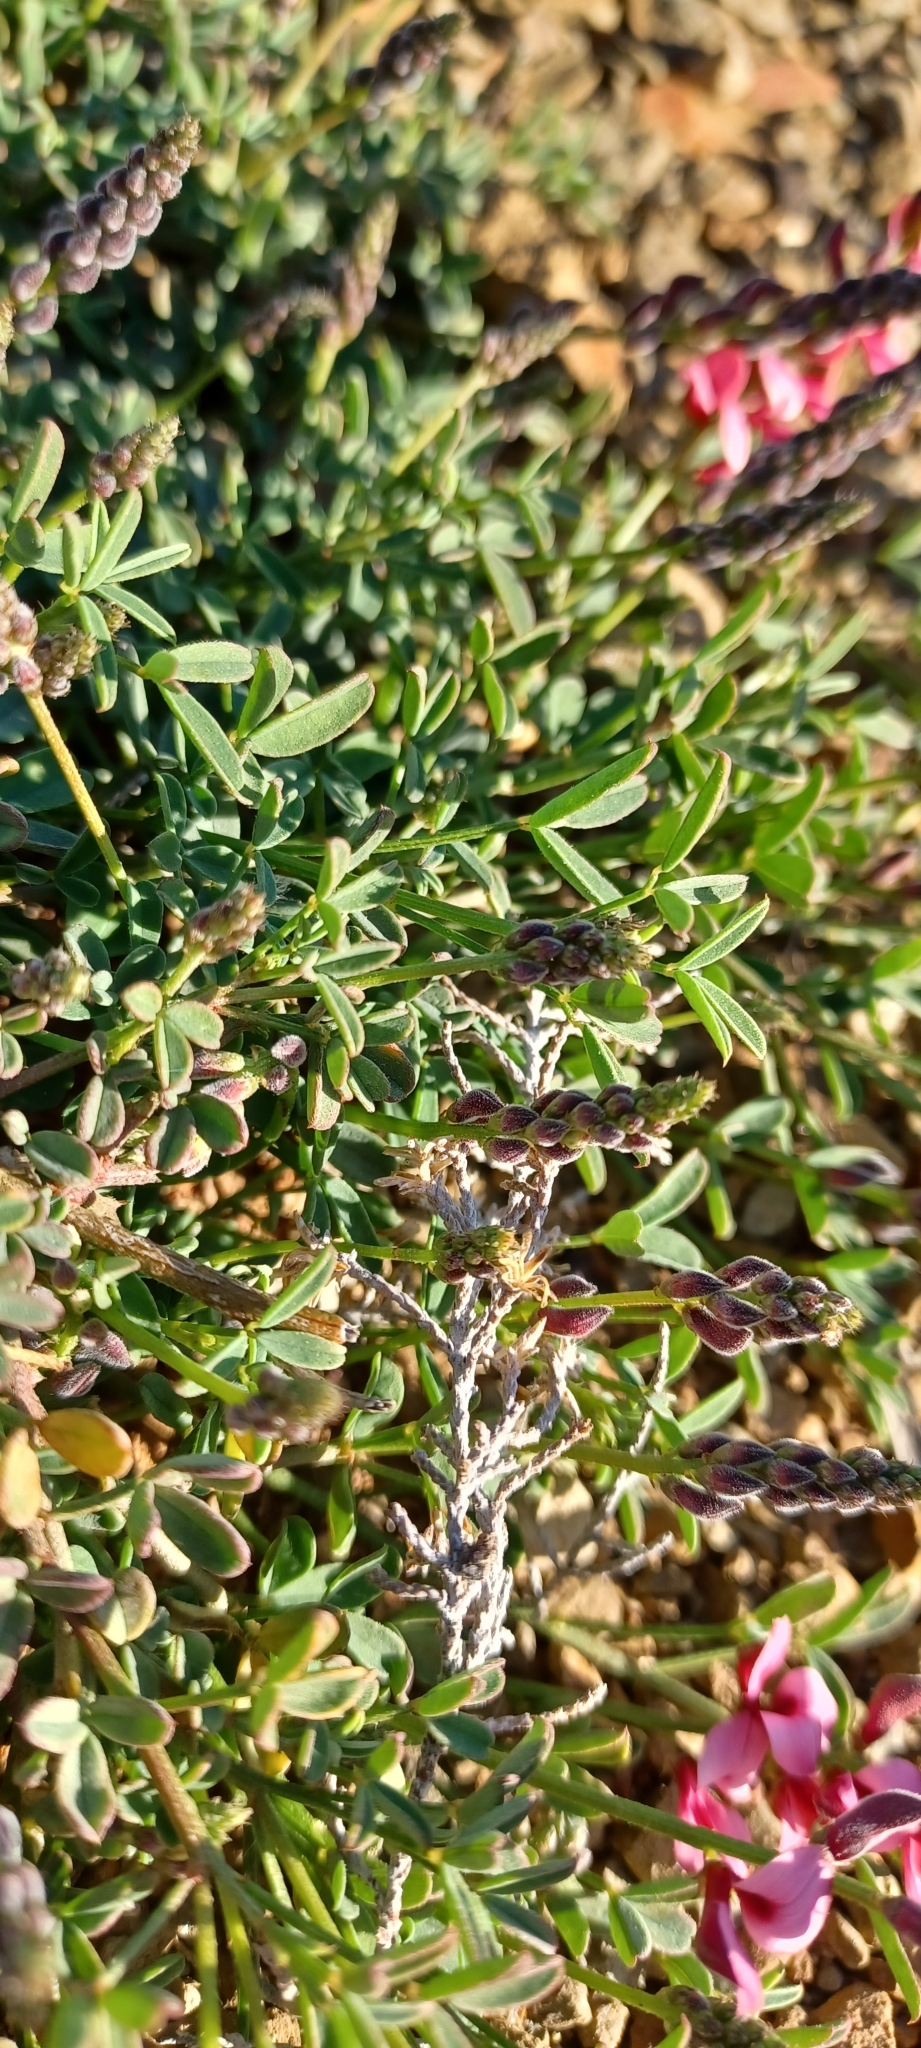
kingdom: Plantae
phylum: Tracheophyta
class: Magnoliopsida
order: Fabales
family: Fabaceae
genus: Indigofera
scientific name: Indigofera heterophylla
